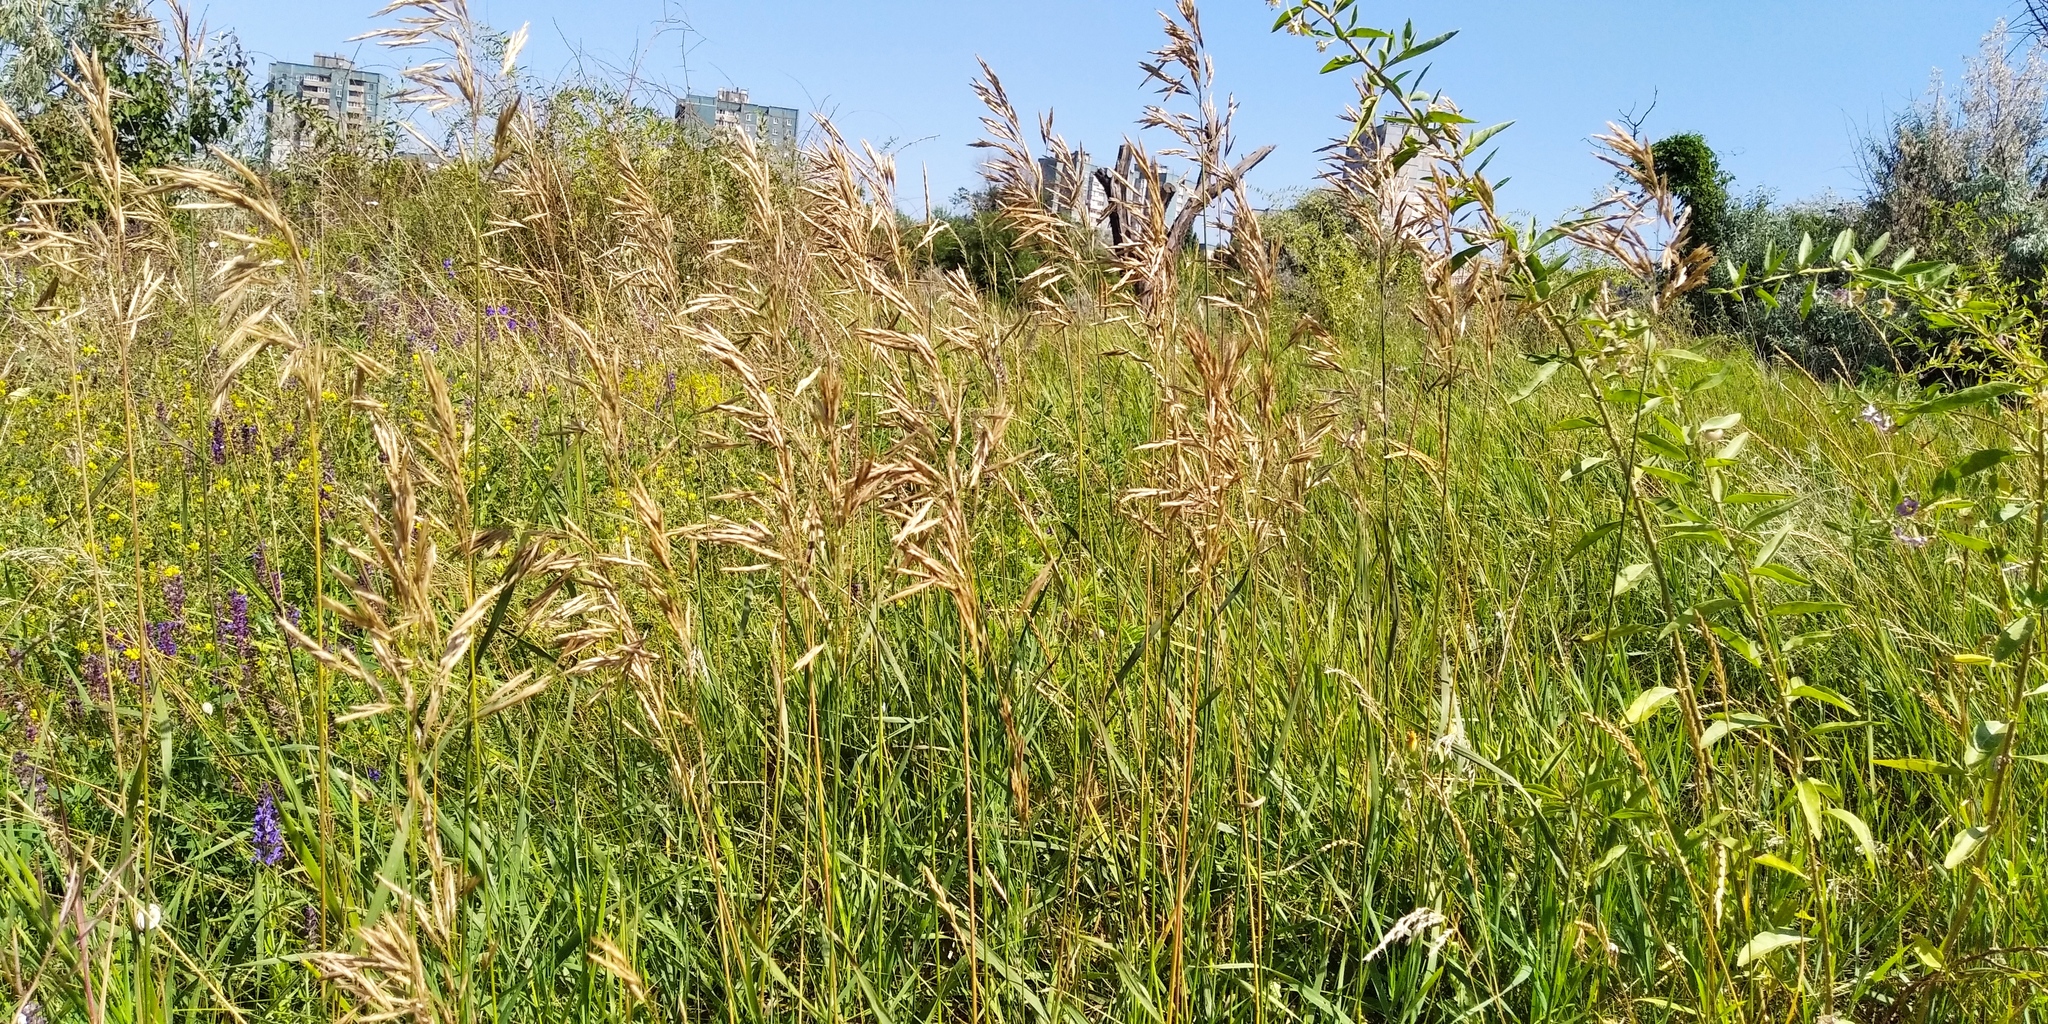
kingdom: Plantae
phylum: Tracheophyta
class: Liliopsida
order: Poales
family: Poaceae
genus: Bromus
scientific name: Bromus inermis
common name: Smooth brome
